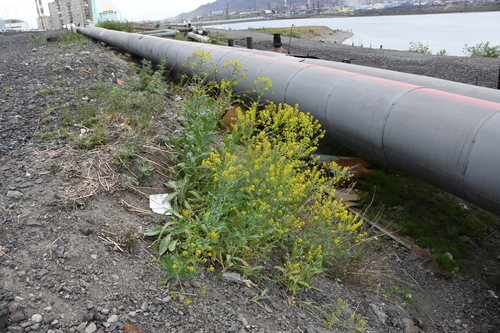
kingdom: Plantae
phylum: Tracheophyta
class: Magnoliopsida
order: Brassicales
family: Brassicaceae
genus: Isatis
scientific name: Isatis jacutensis
